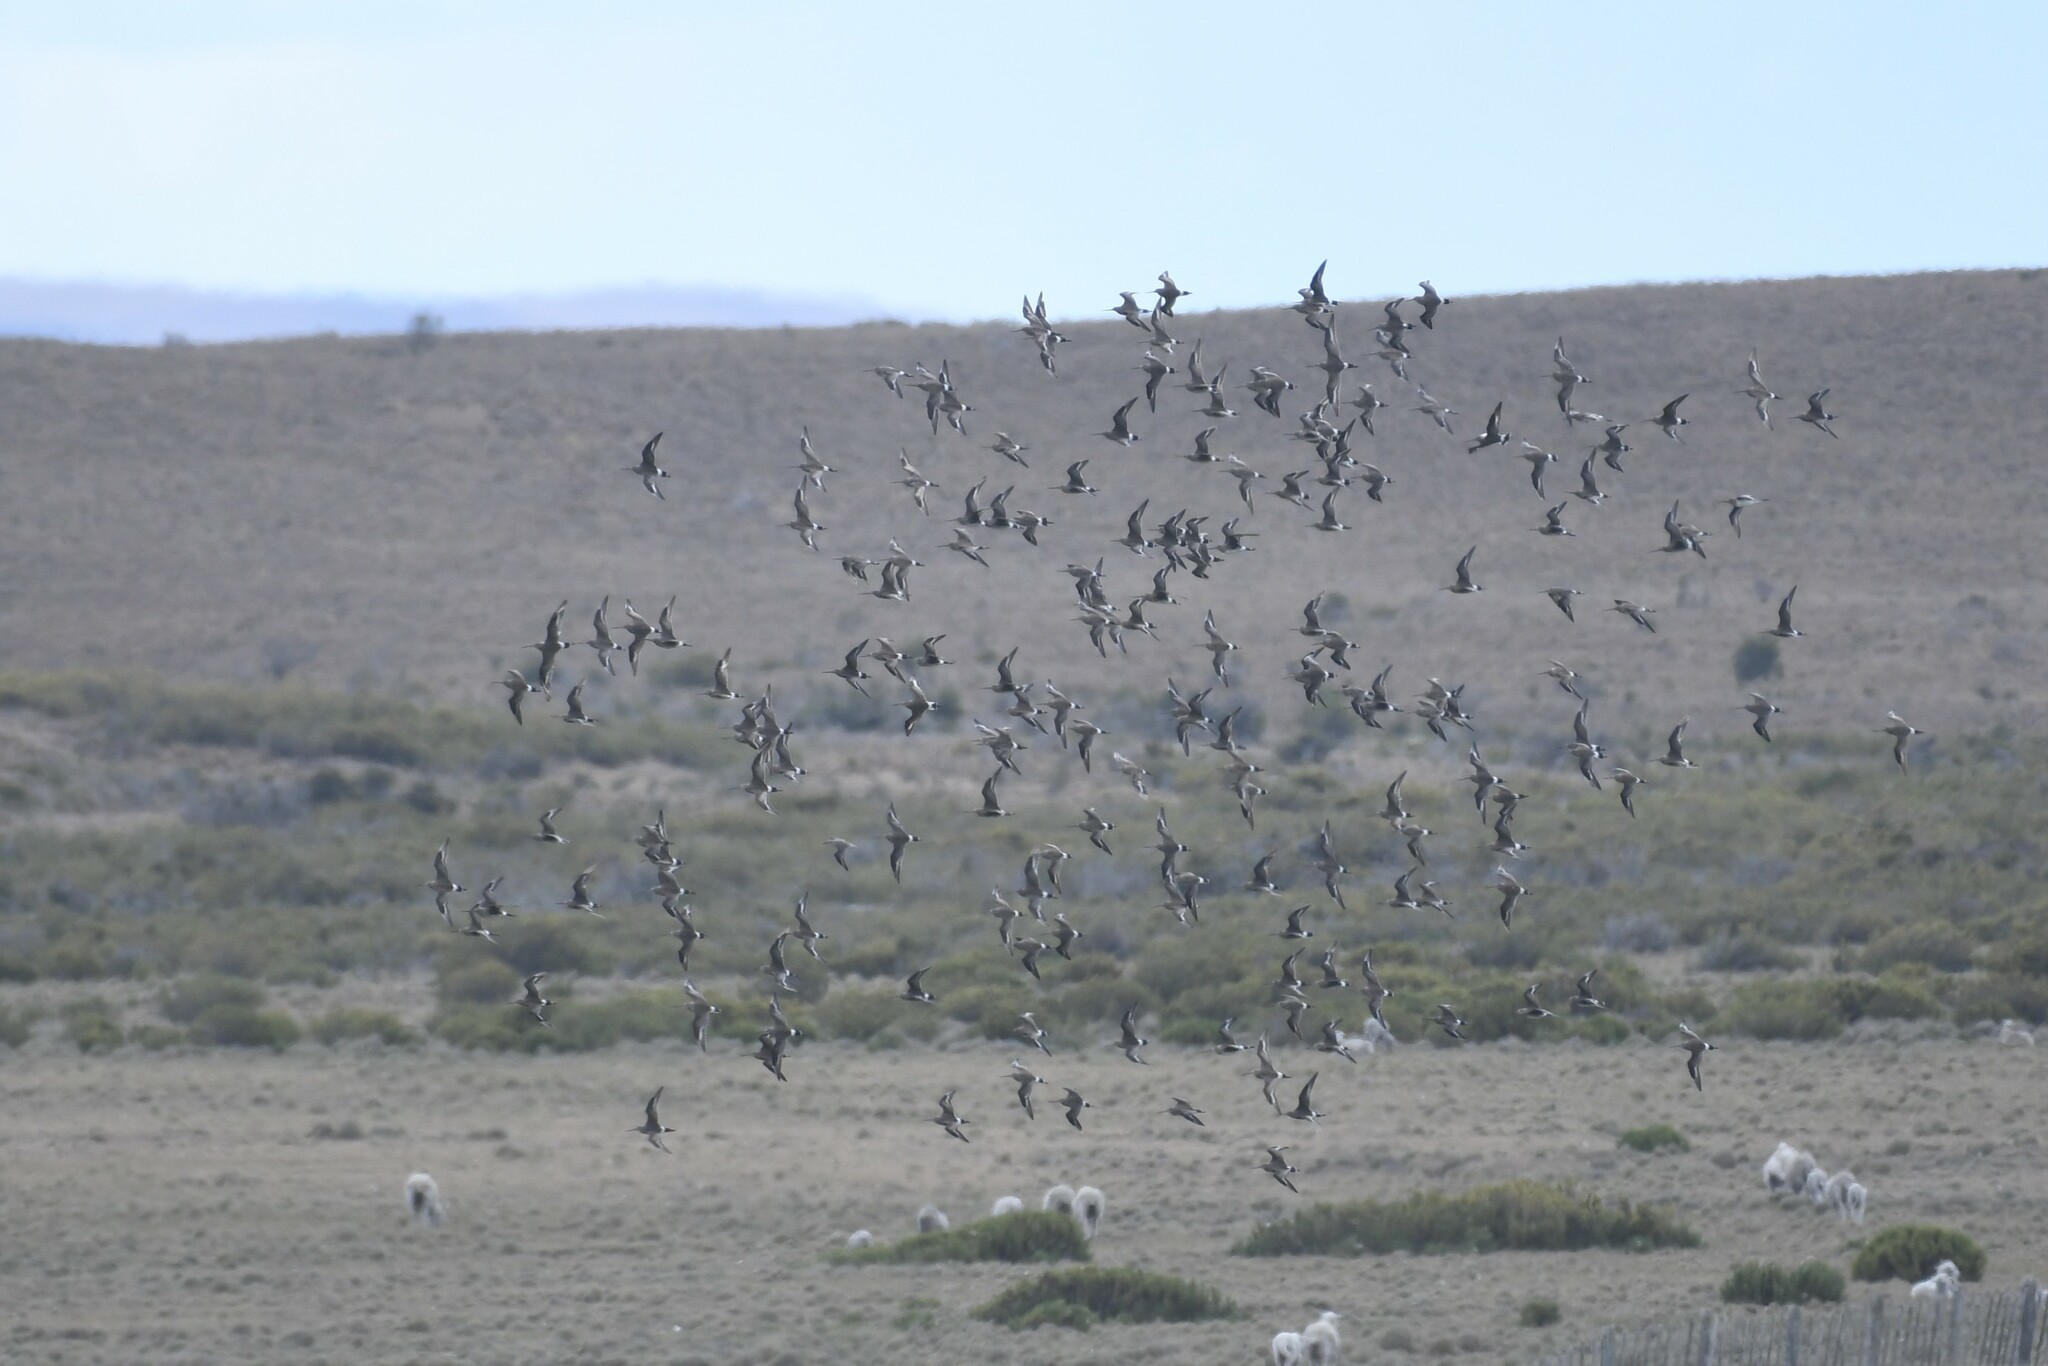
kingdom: Animalia
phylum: Chordata
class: Aves
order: Charadriiformes
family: Scolopacidae
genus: Limosa
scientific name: Limosa haemastica
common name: Hudsonian godwit
